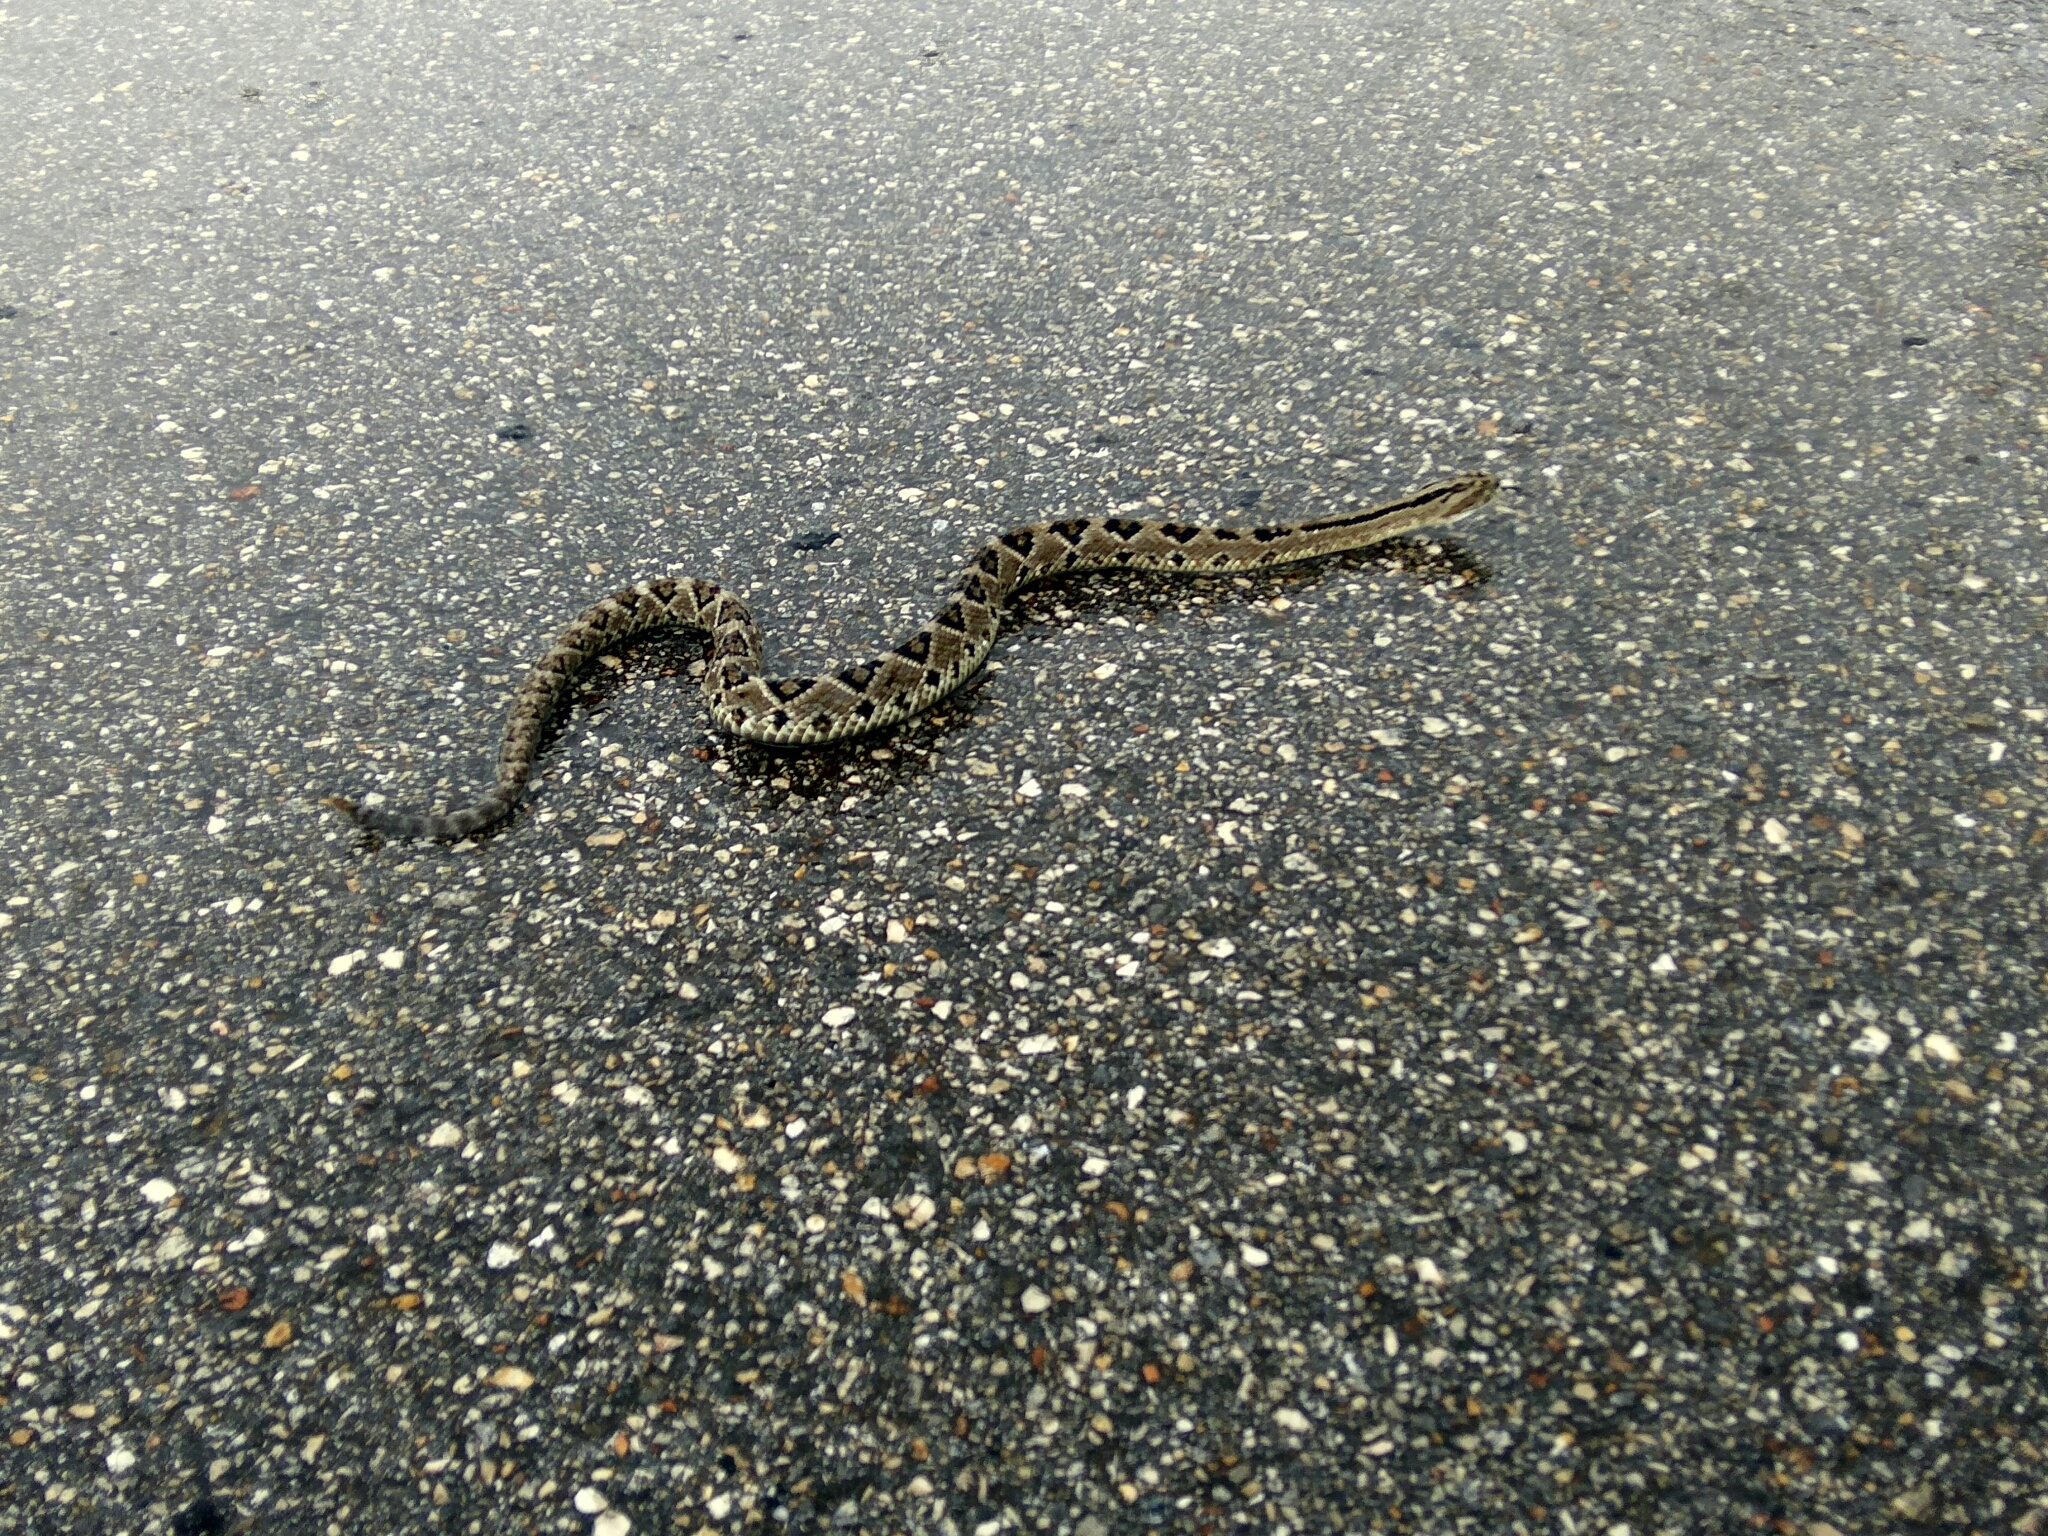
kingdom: Animalia
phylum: Chordata
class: Squamata
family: Viperidae
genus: Crotalus
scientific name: Crotalus tzabcan
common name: Yucatan neotropical rattlesnake
